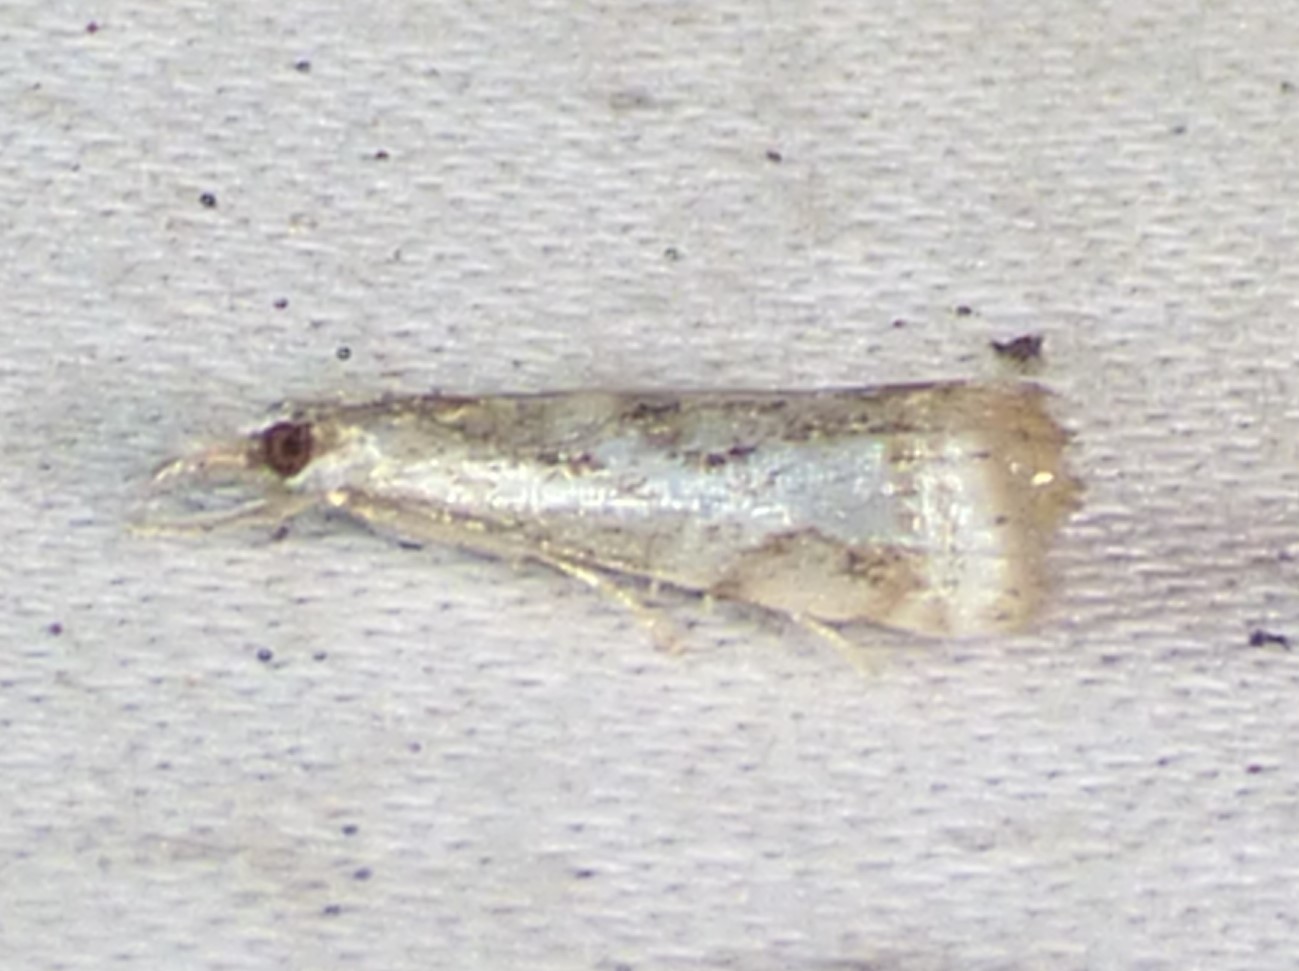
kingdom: Animalia
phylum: Arthropoda
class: Insecta
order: Lepidoptera
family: Crambidae
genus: Microcrambus
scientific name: Microcrambus elegans
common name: Elegant grass-veneer
